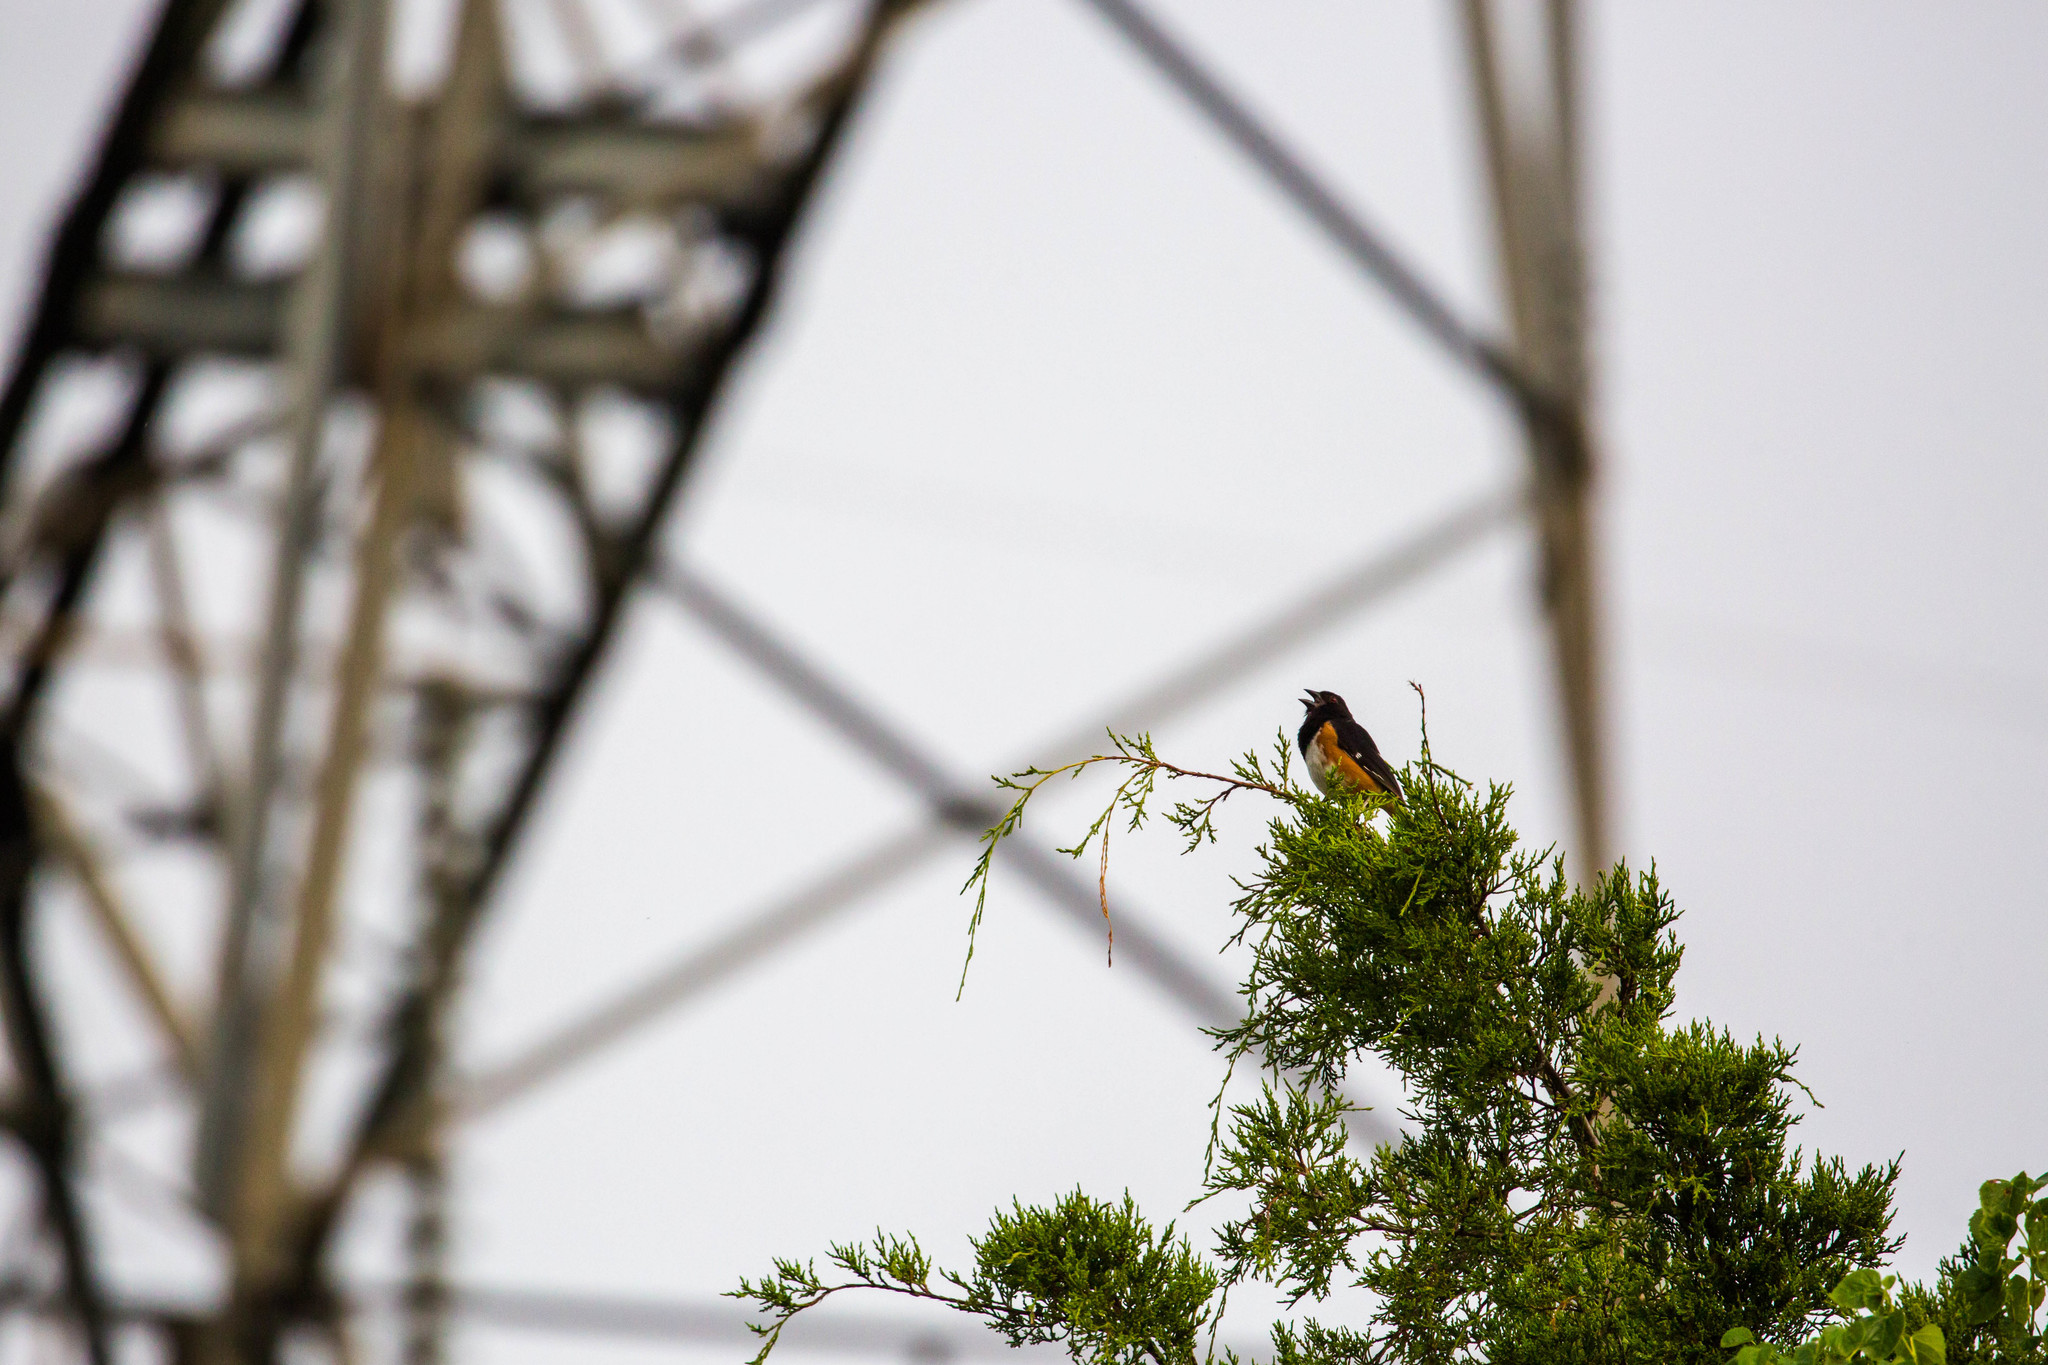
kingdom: Animalia
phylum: Chordata
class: Aves
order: Passeriformes
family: Passerellidae
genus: Pipilo
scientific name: Pipilo erythrophthalmus
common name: Eastern towhee
